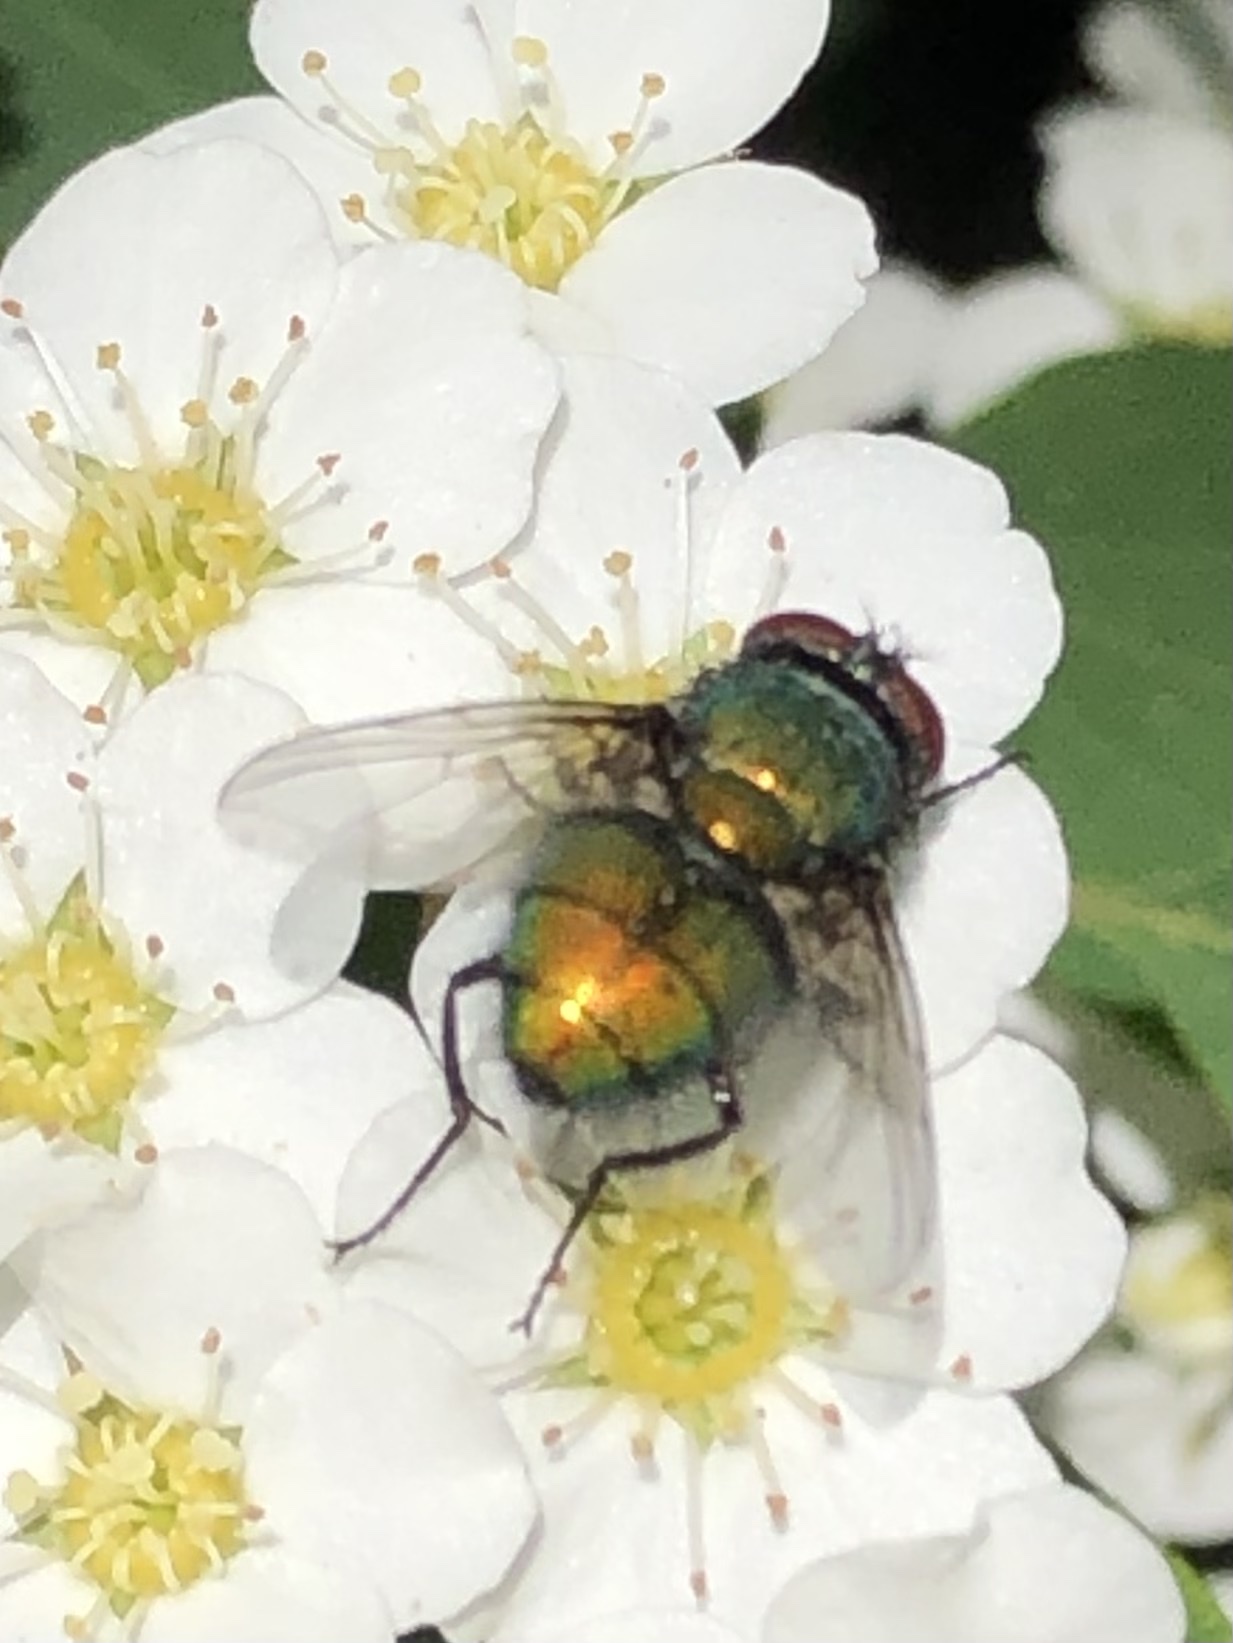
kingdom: Animalia
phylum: Arthropoda
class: Insecta
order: Diptera
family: Calliphoridae
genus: Lucilia
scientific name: Lucilia sericata
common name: Blow fly
